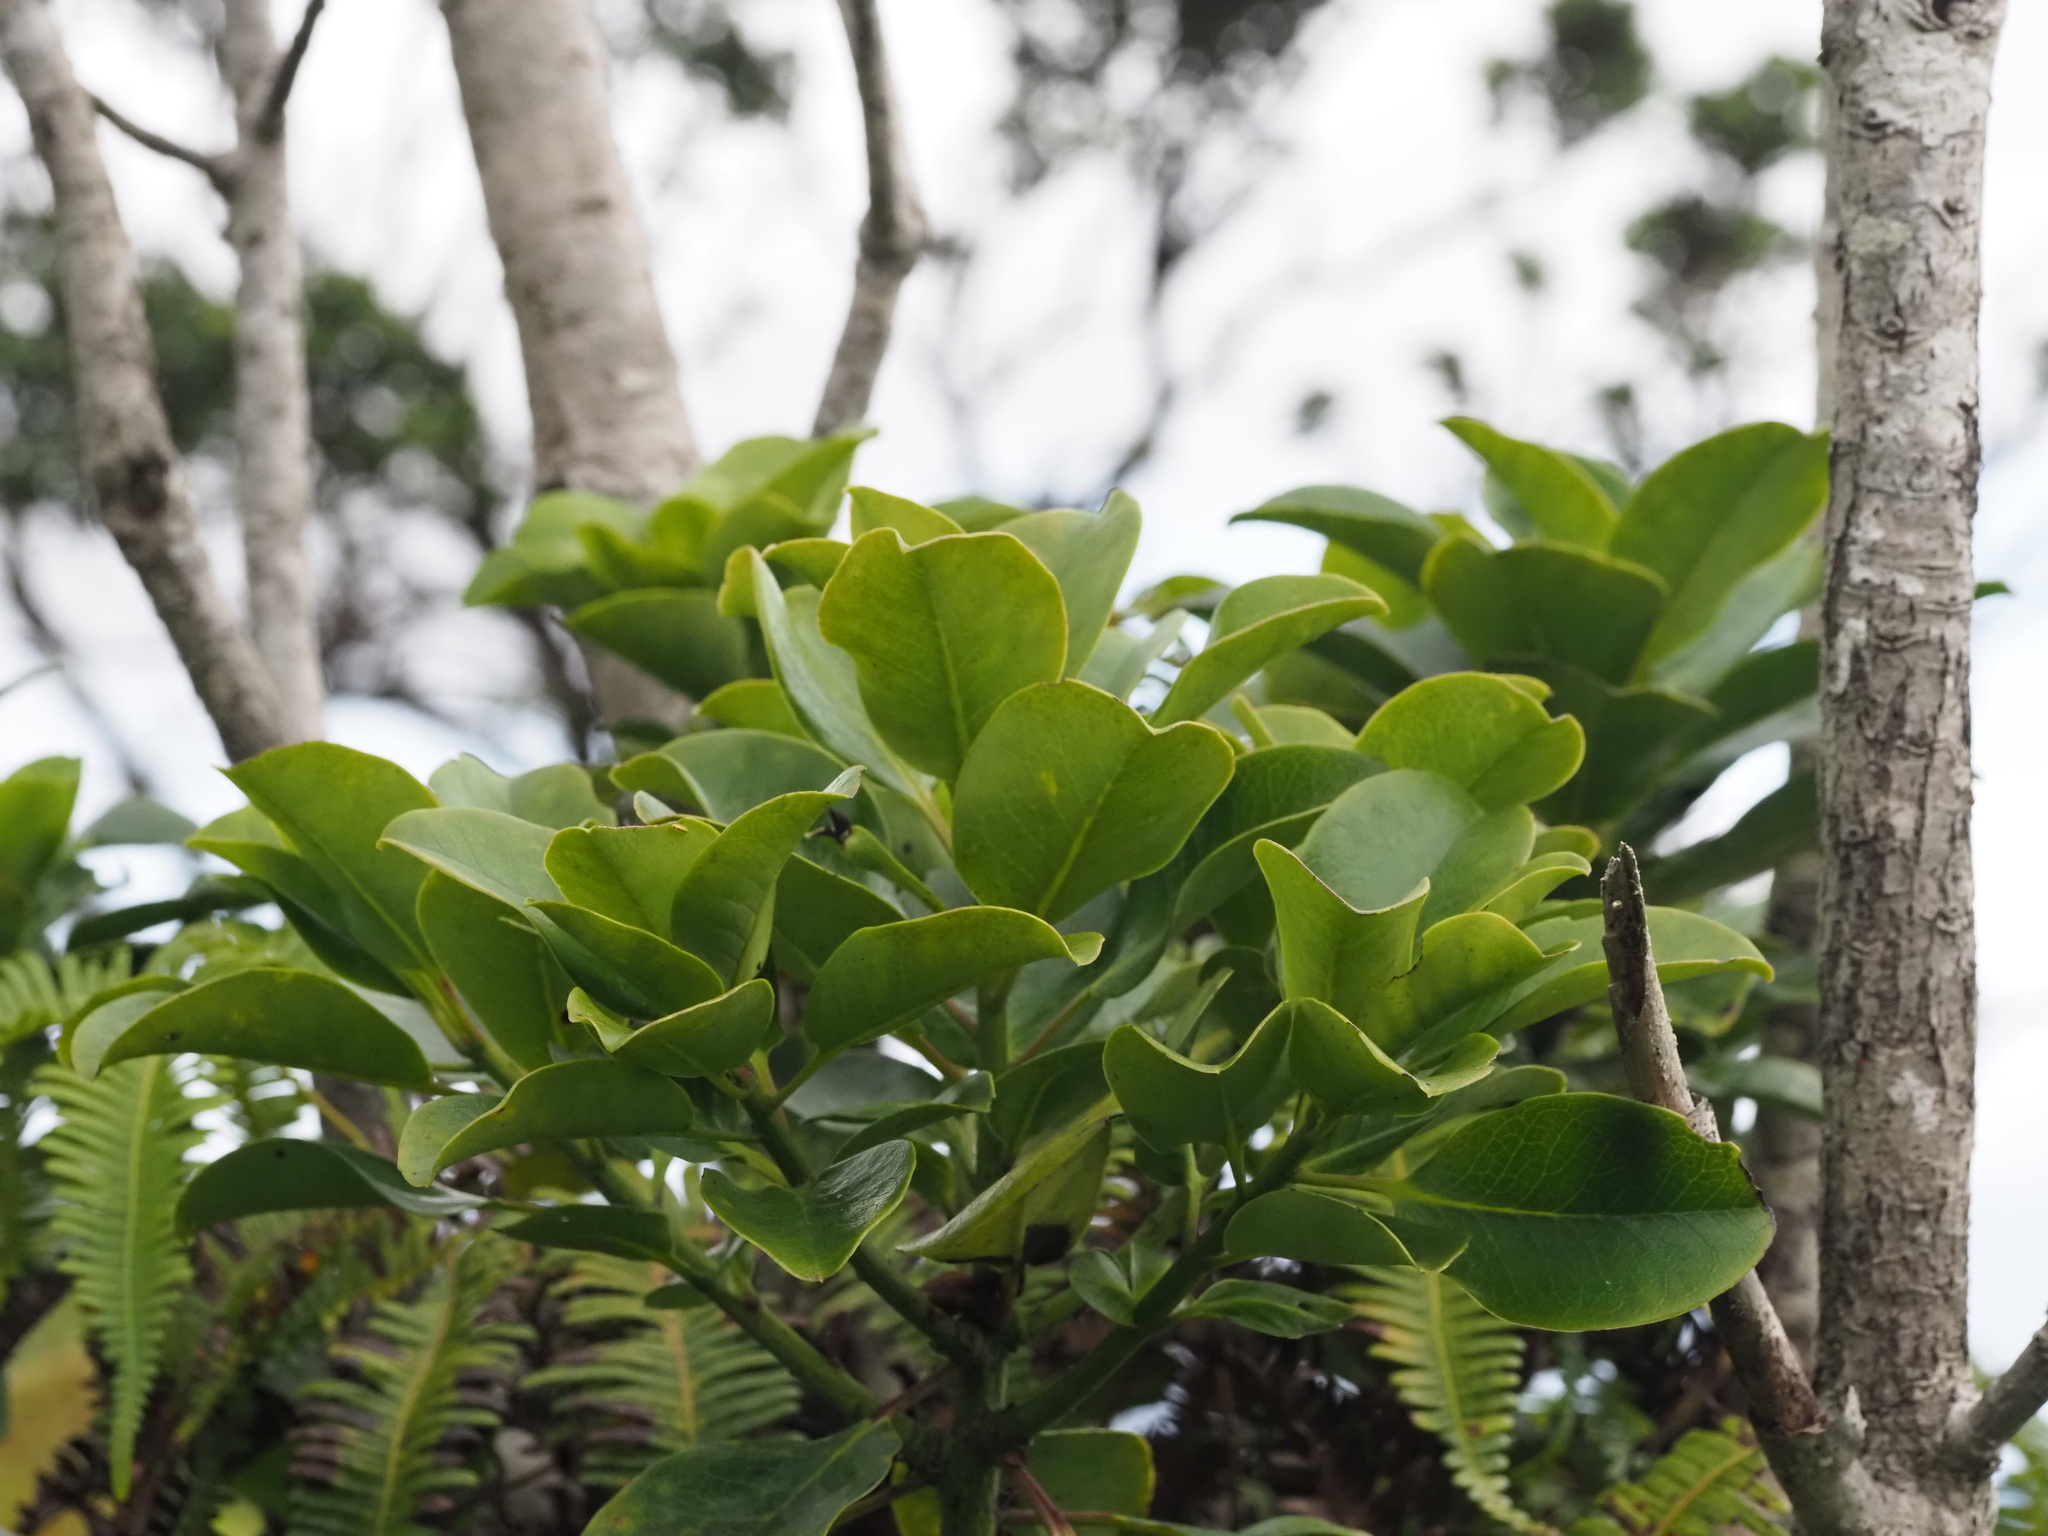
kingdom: Plantae
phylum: Tracheophyta
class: Magnoliopsida
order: Aquifoliales
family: Aquifoliaceae
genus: Ilex
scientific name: Ilex anomala
